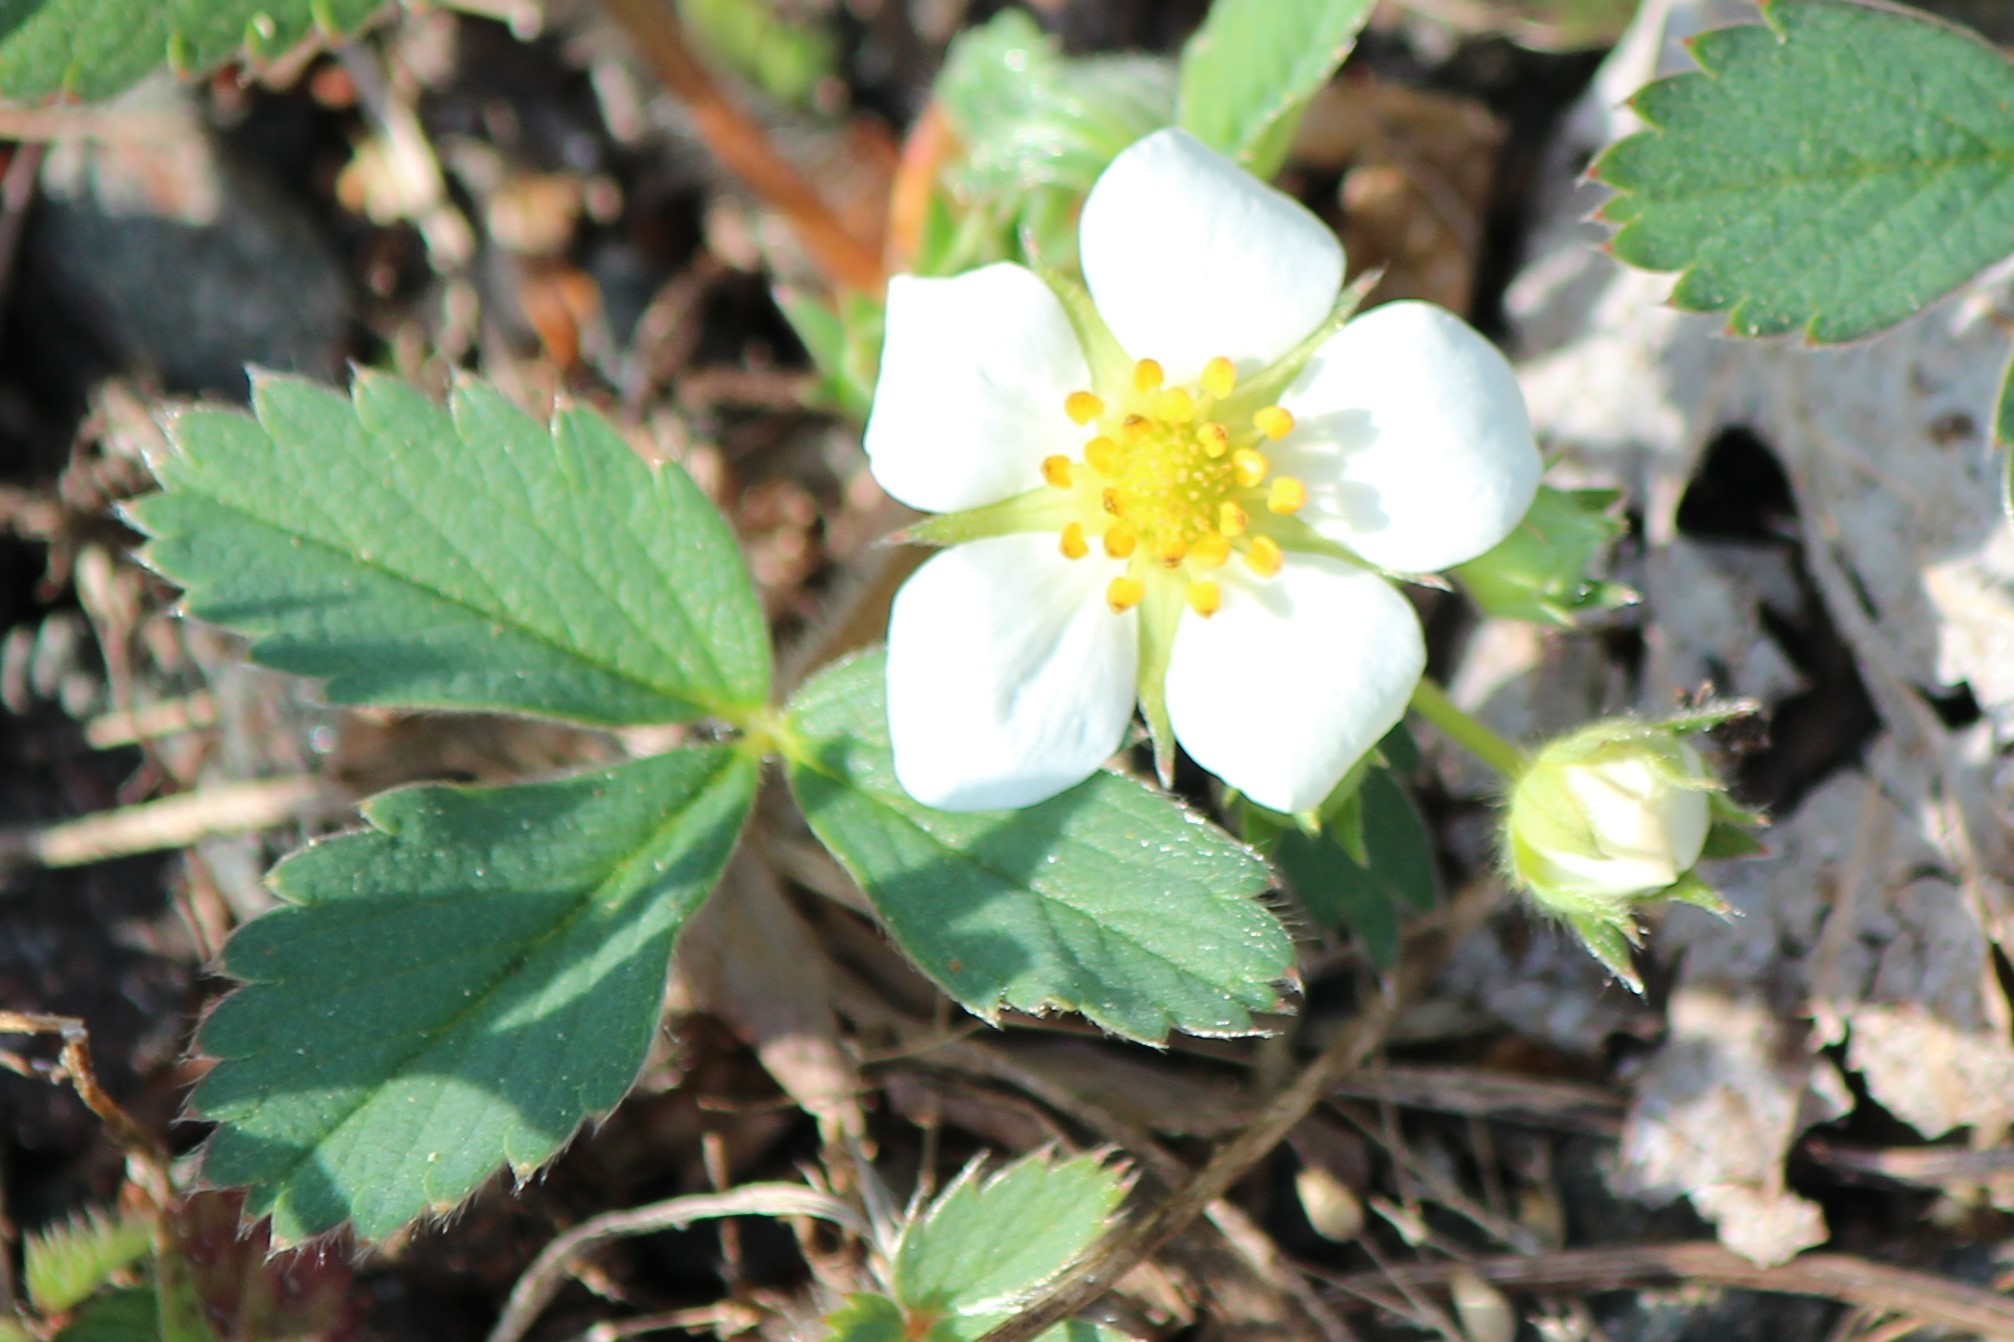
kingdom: Plantae
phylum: Tracheophyta
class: Magnoliopsida
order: Rosales
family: Rosaceae
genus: Fragaria
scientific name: Fragaria virginiana
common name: Thickleaved wild strawberry
